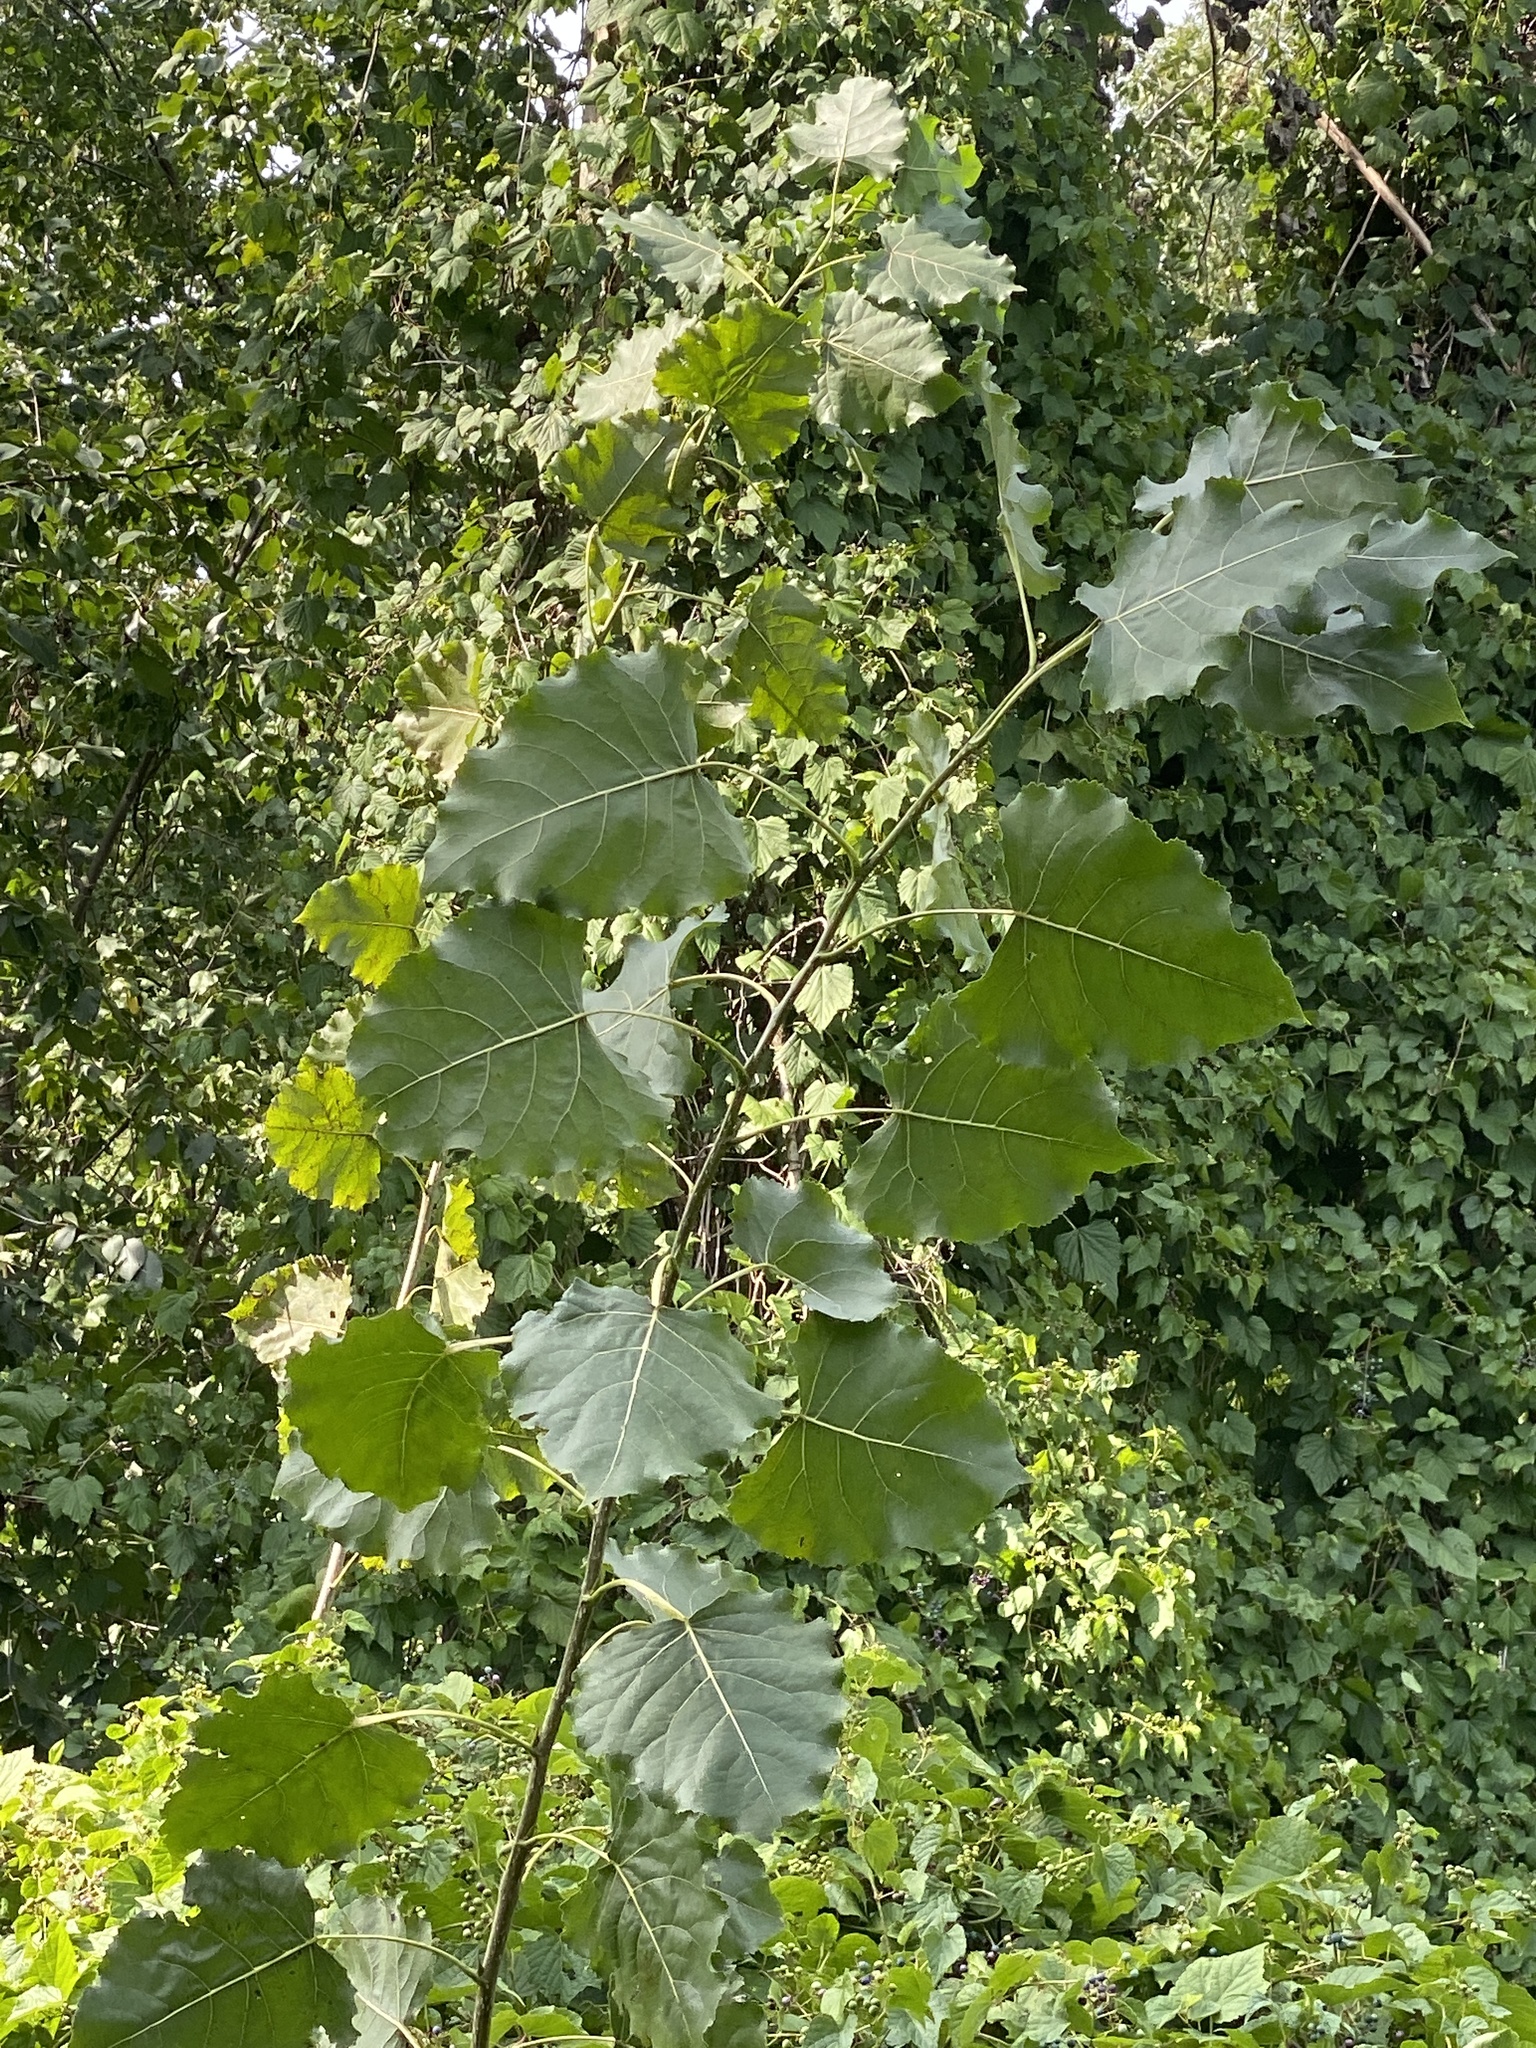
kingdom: Plantae
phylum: Tracheophyta
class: Magnoliopsida
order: Malpighiales
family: Salicaceae
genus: Populus
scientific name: Populus deltoides
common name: Eastern cottonwood
